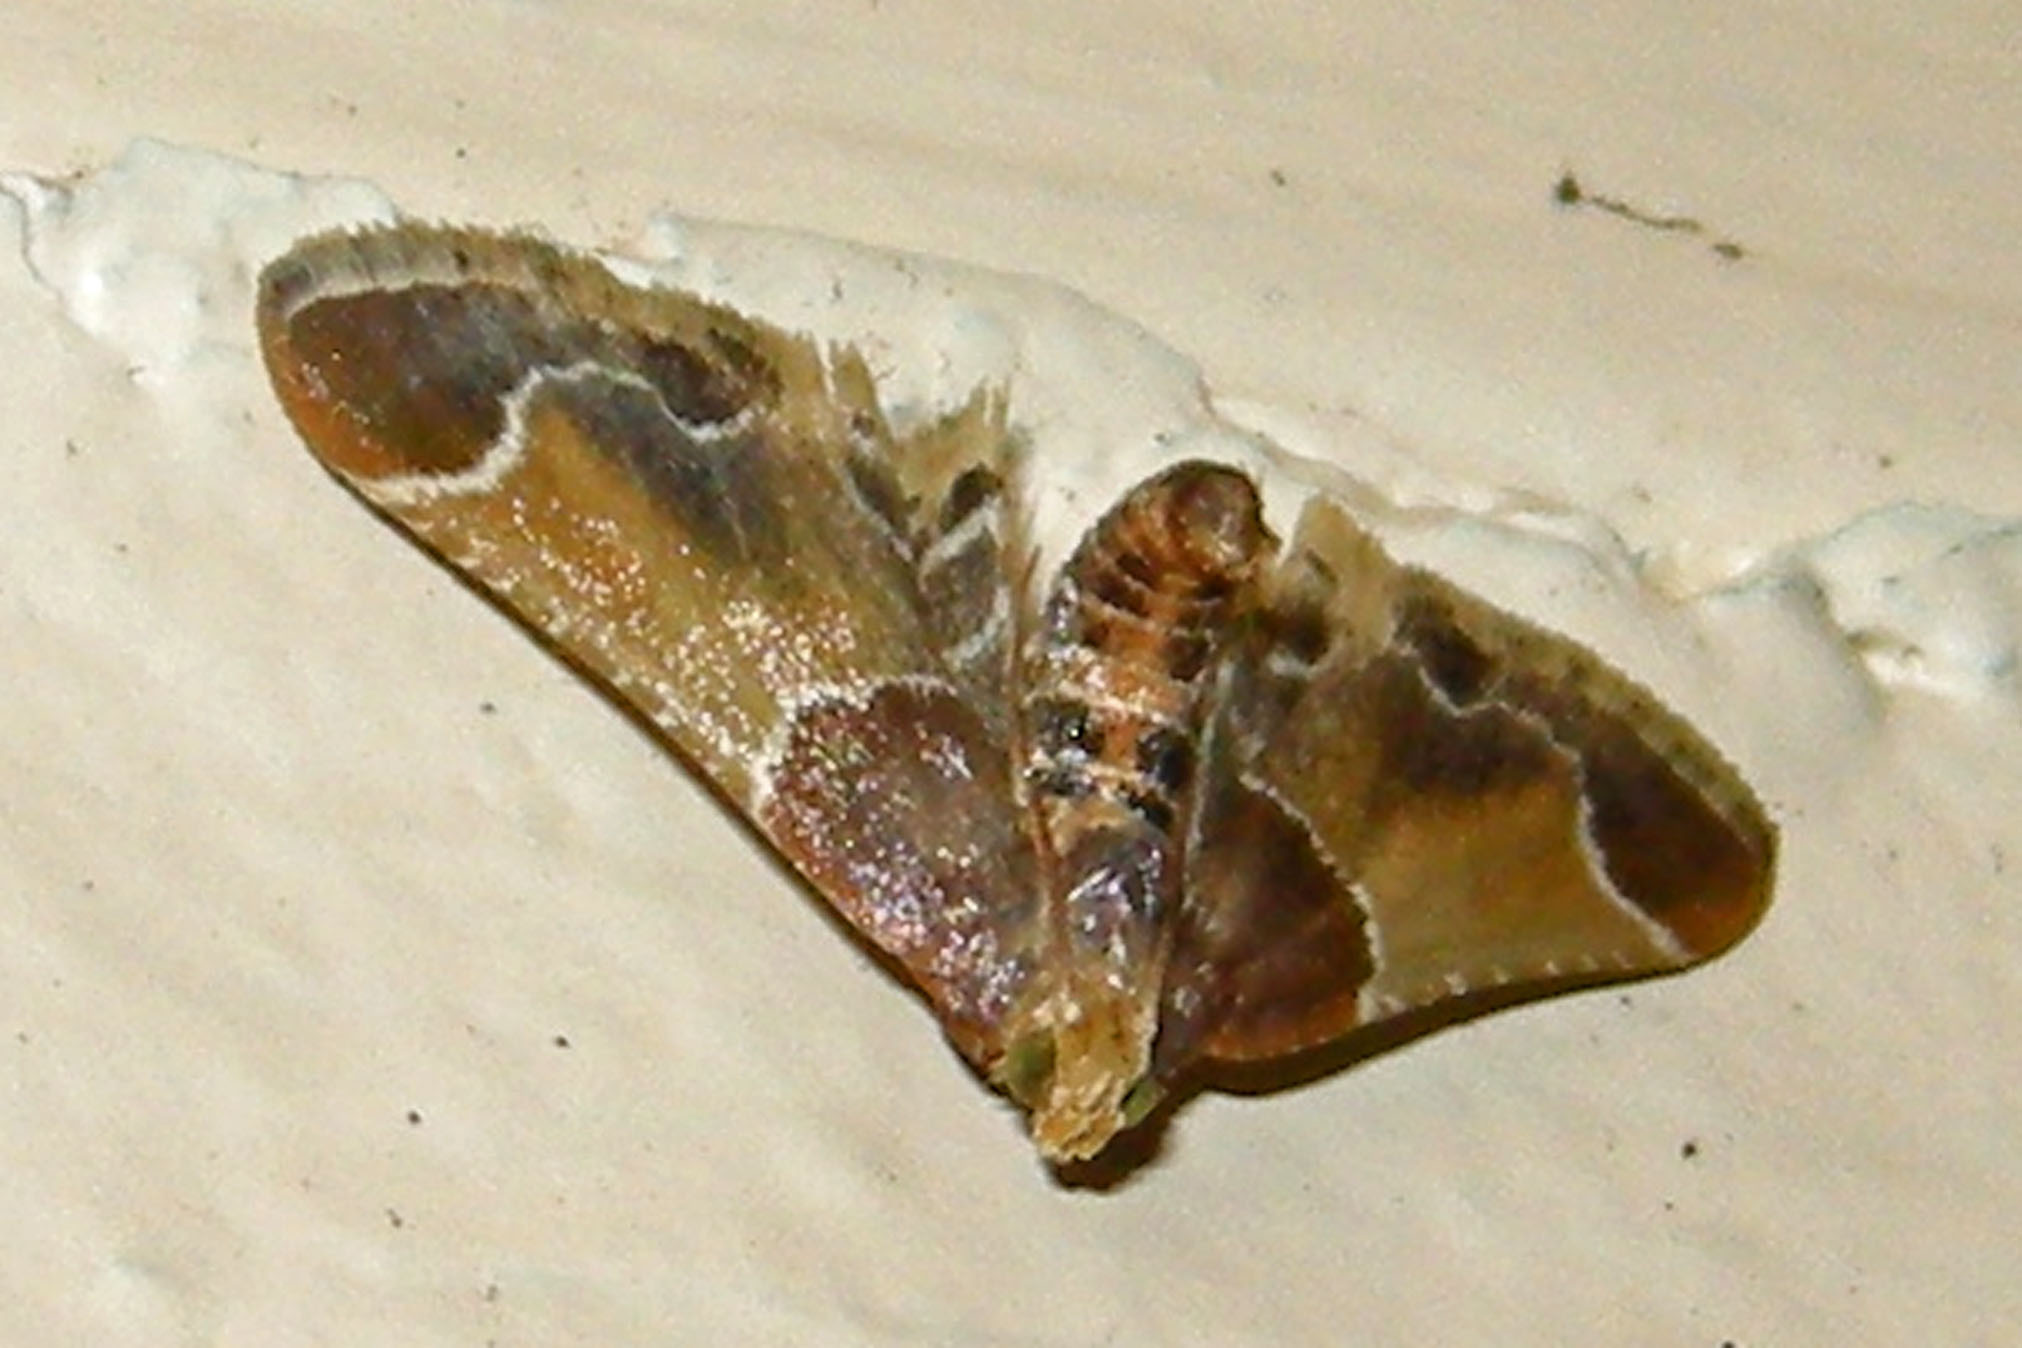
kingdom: Animalia
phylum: Arthropoda
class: Insecta
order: Lepidoptera
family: Pyralidae
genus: Pyralis
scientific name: Pyralis farinalis
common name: Meal moth
